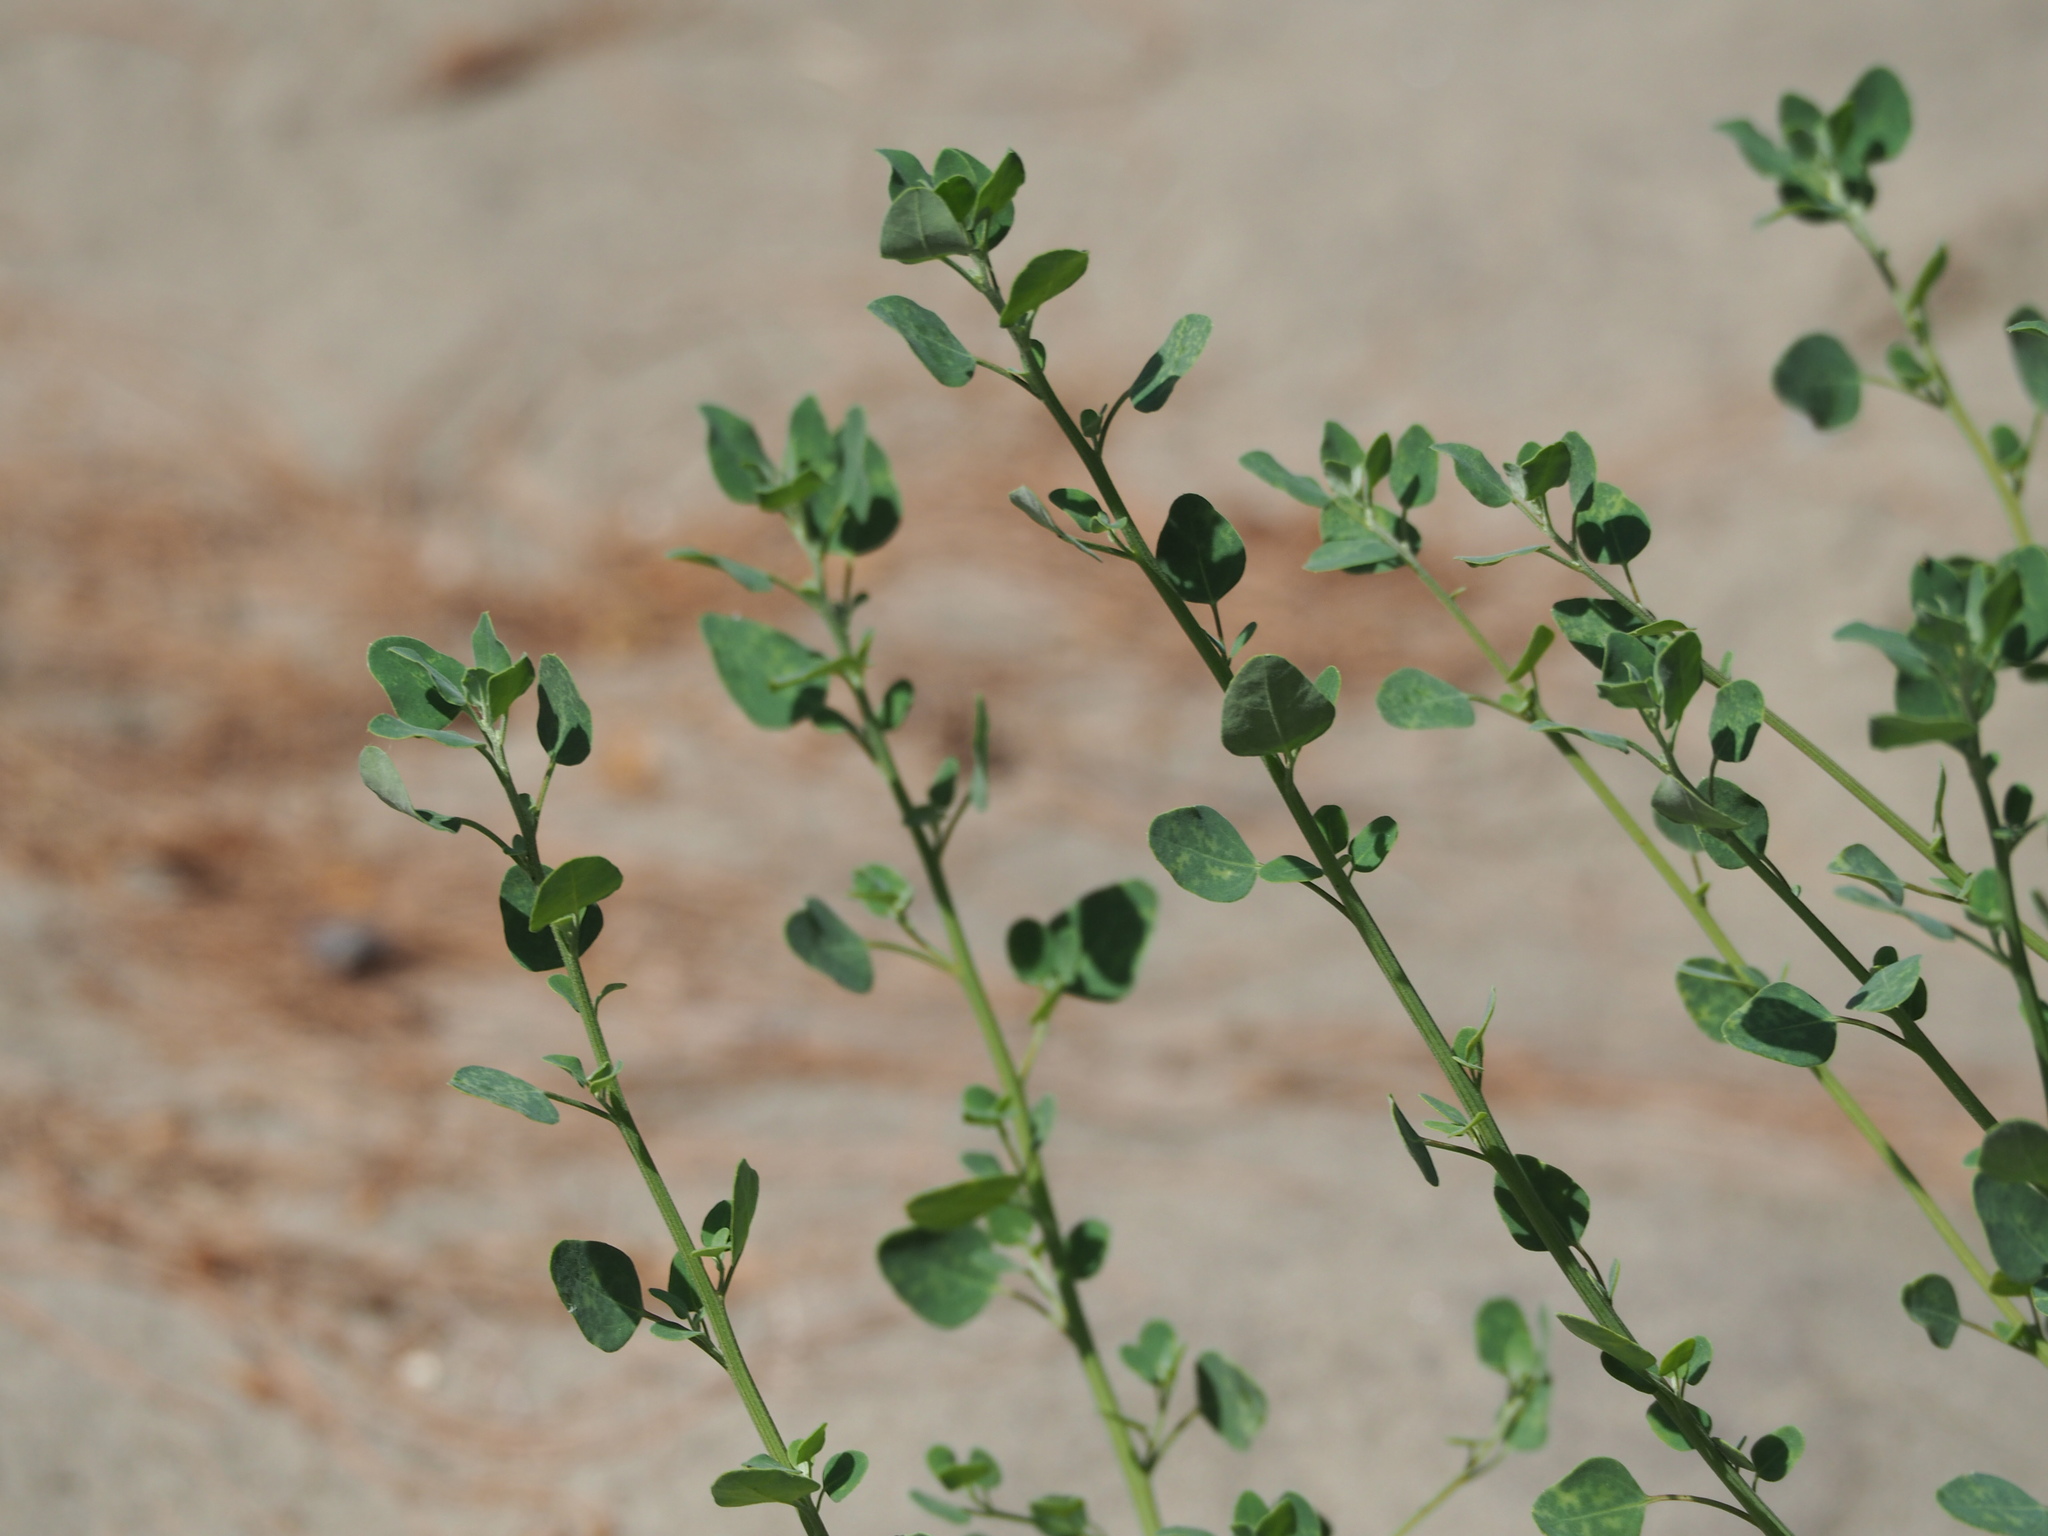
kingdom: Plantae
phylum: Tracheophyta
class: Magnoliopsida
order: Caryophyllales
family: Amaranthaceae
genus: Chenopodium
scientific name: Chenopodium acuminatum
